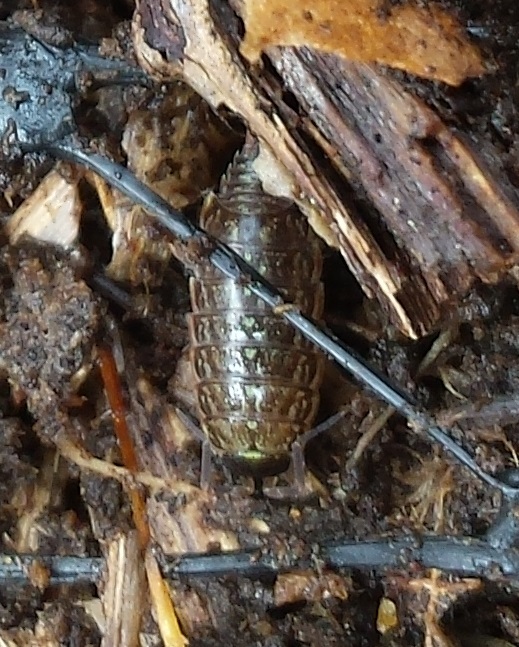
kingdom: Animalia
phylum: Arthropoda
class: Malacostraca
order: Isopoda
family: Philosciidae
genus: Philoscia
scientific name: Philoscia muscorum
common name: Common striped woodlouse
